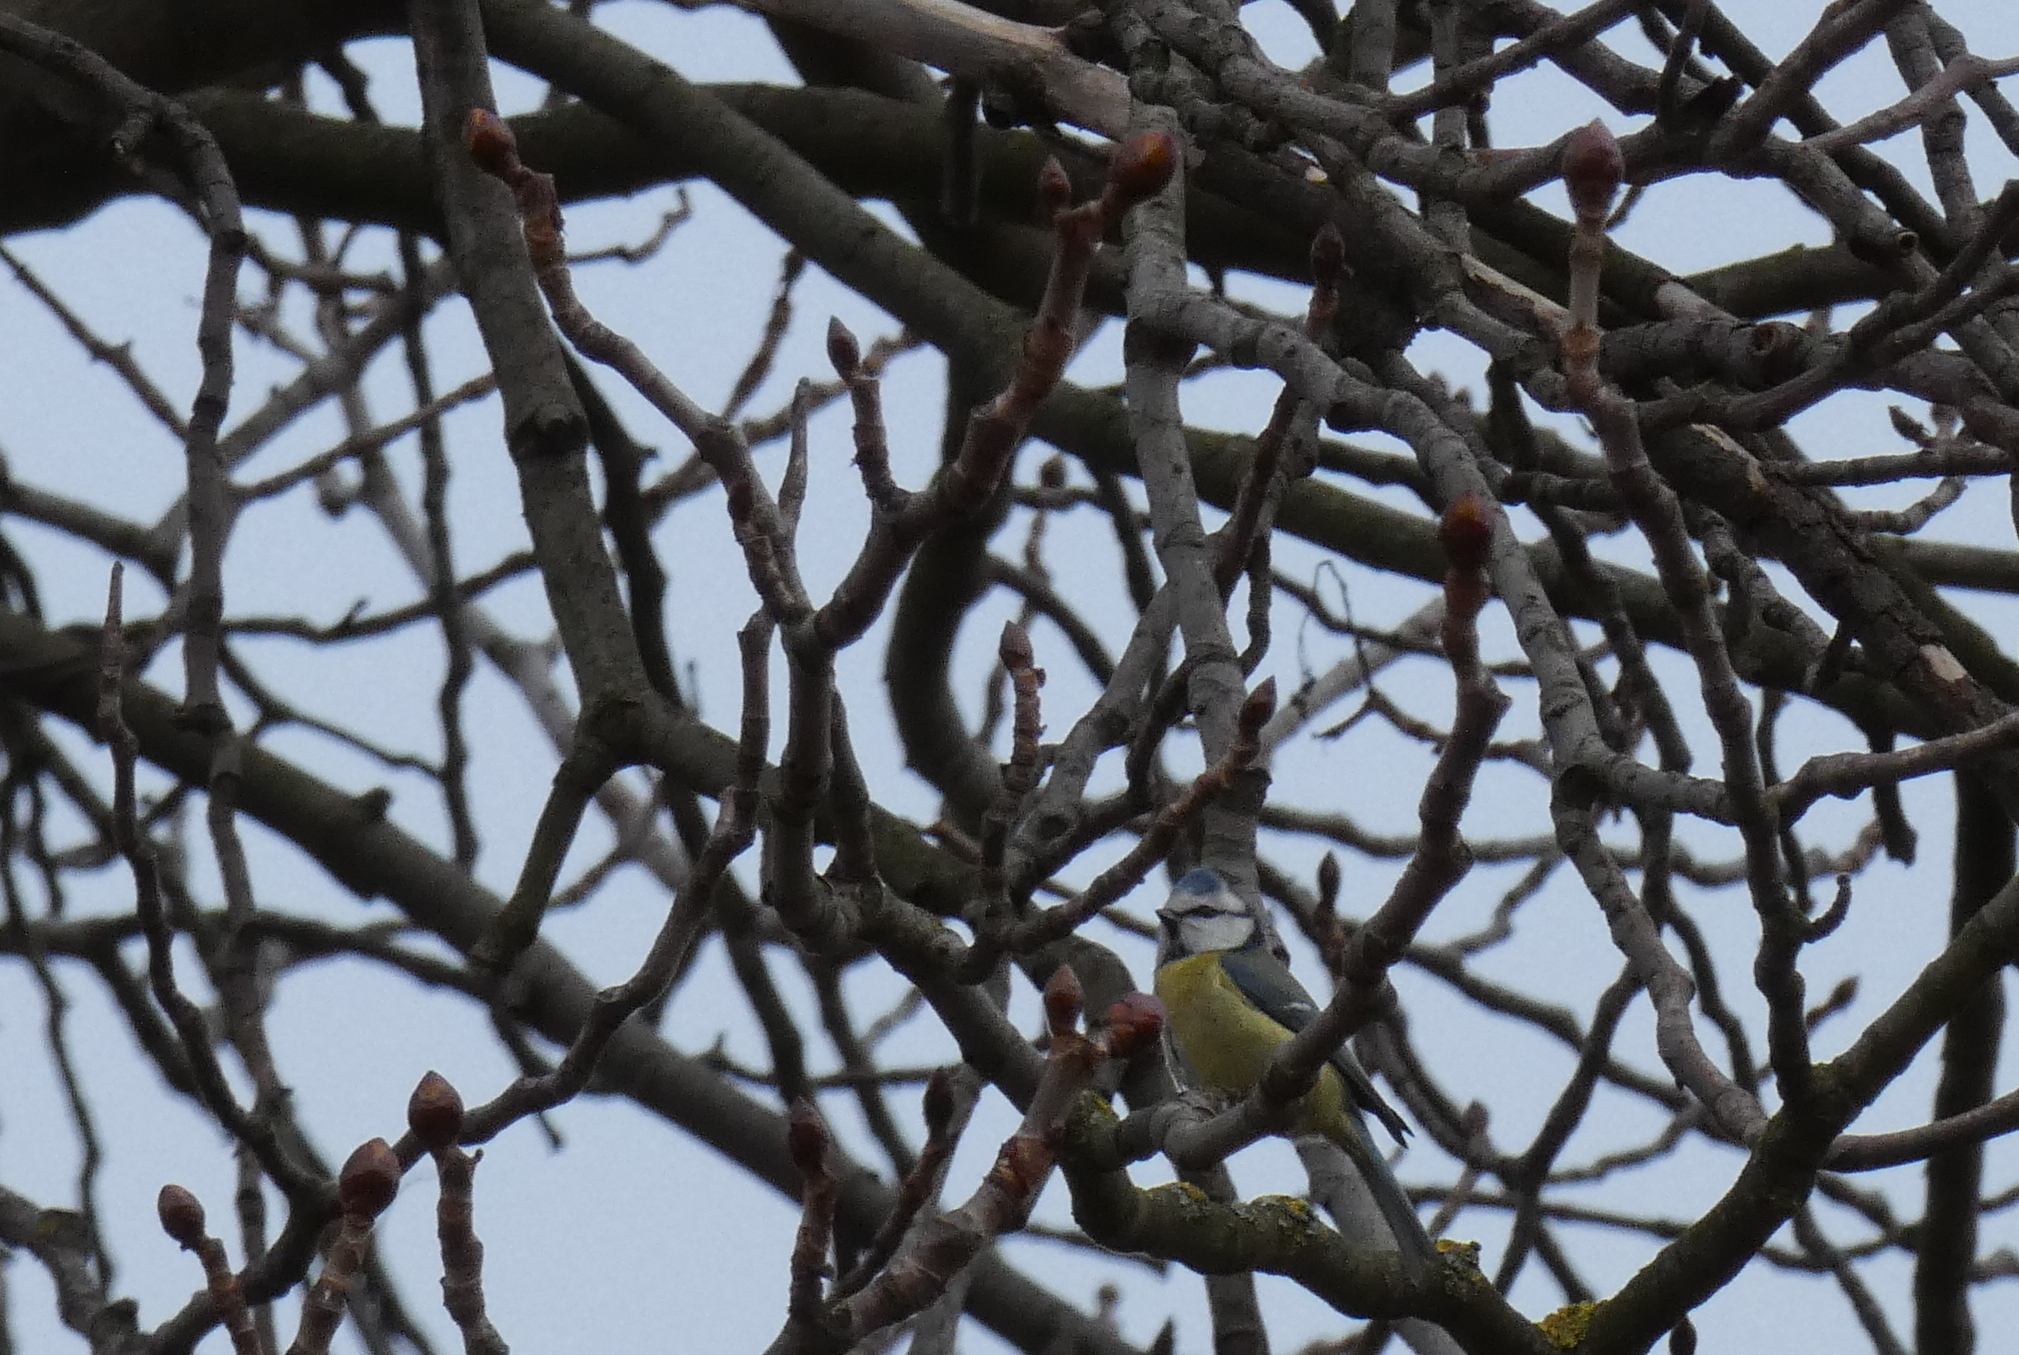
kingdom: Animalia
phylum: Chordata
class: Aves
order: Passeriformes
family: Paridae
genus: Cyanistes
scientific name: Cyanistes caeruleus
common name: Eurasian blue tit
